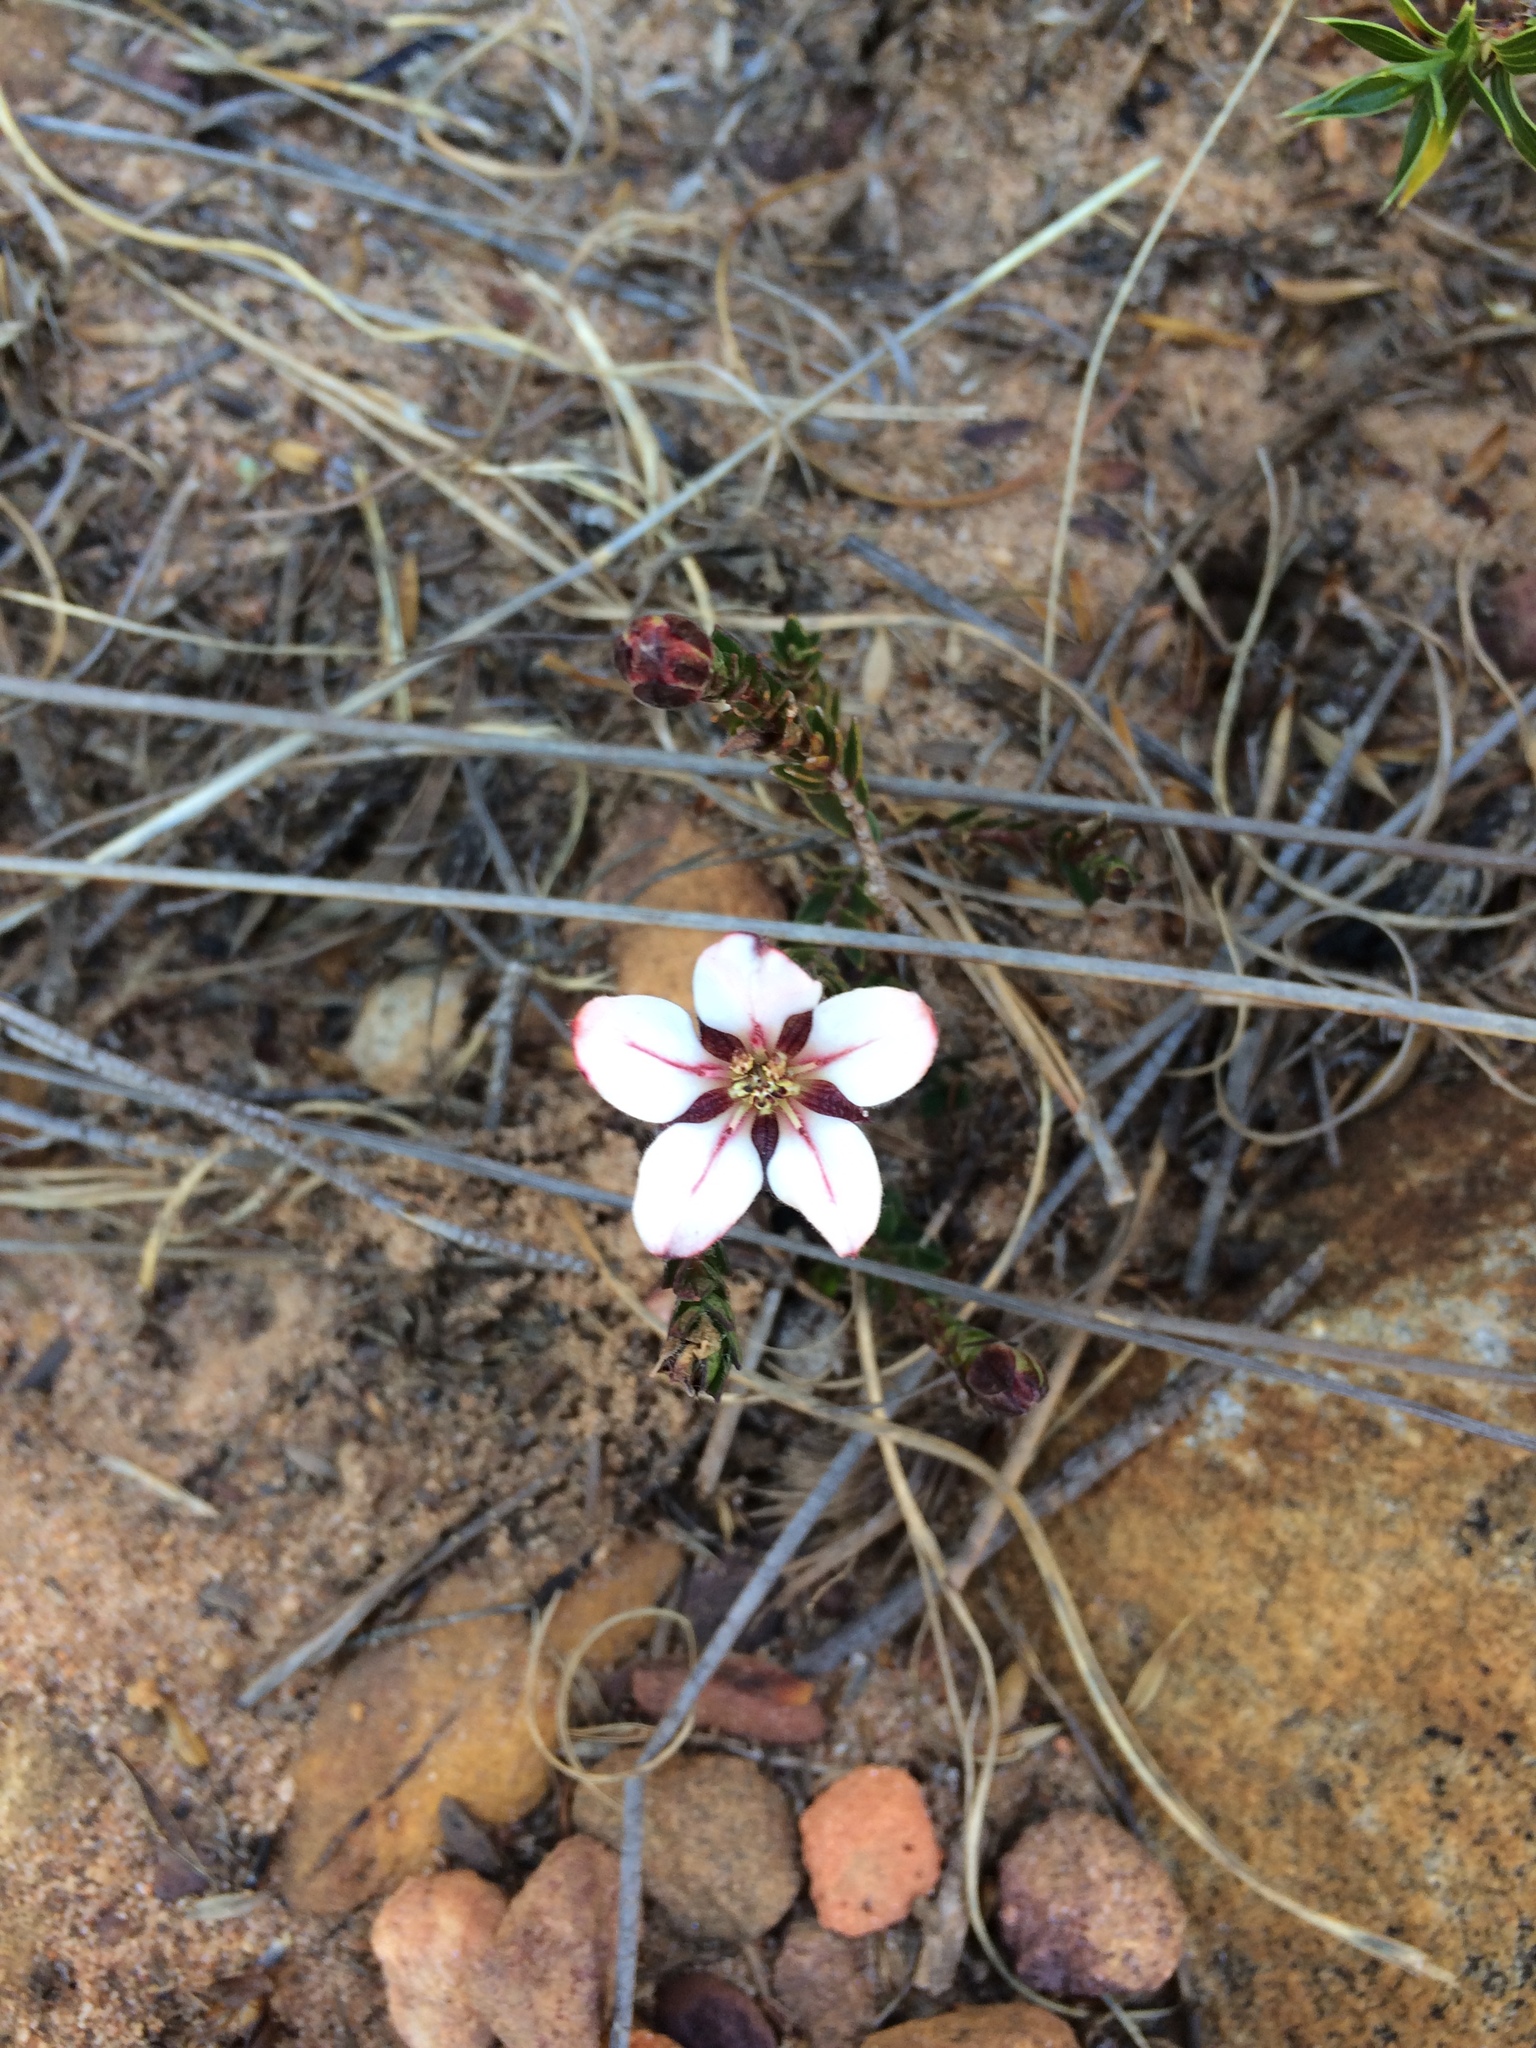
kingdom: Plantae
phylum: Tracheophyta
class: Magnoliopsida
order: Sapindales
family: Rutaceae
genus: Adenandra
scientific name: Adenandra villosa
